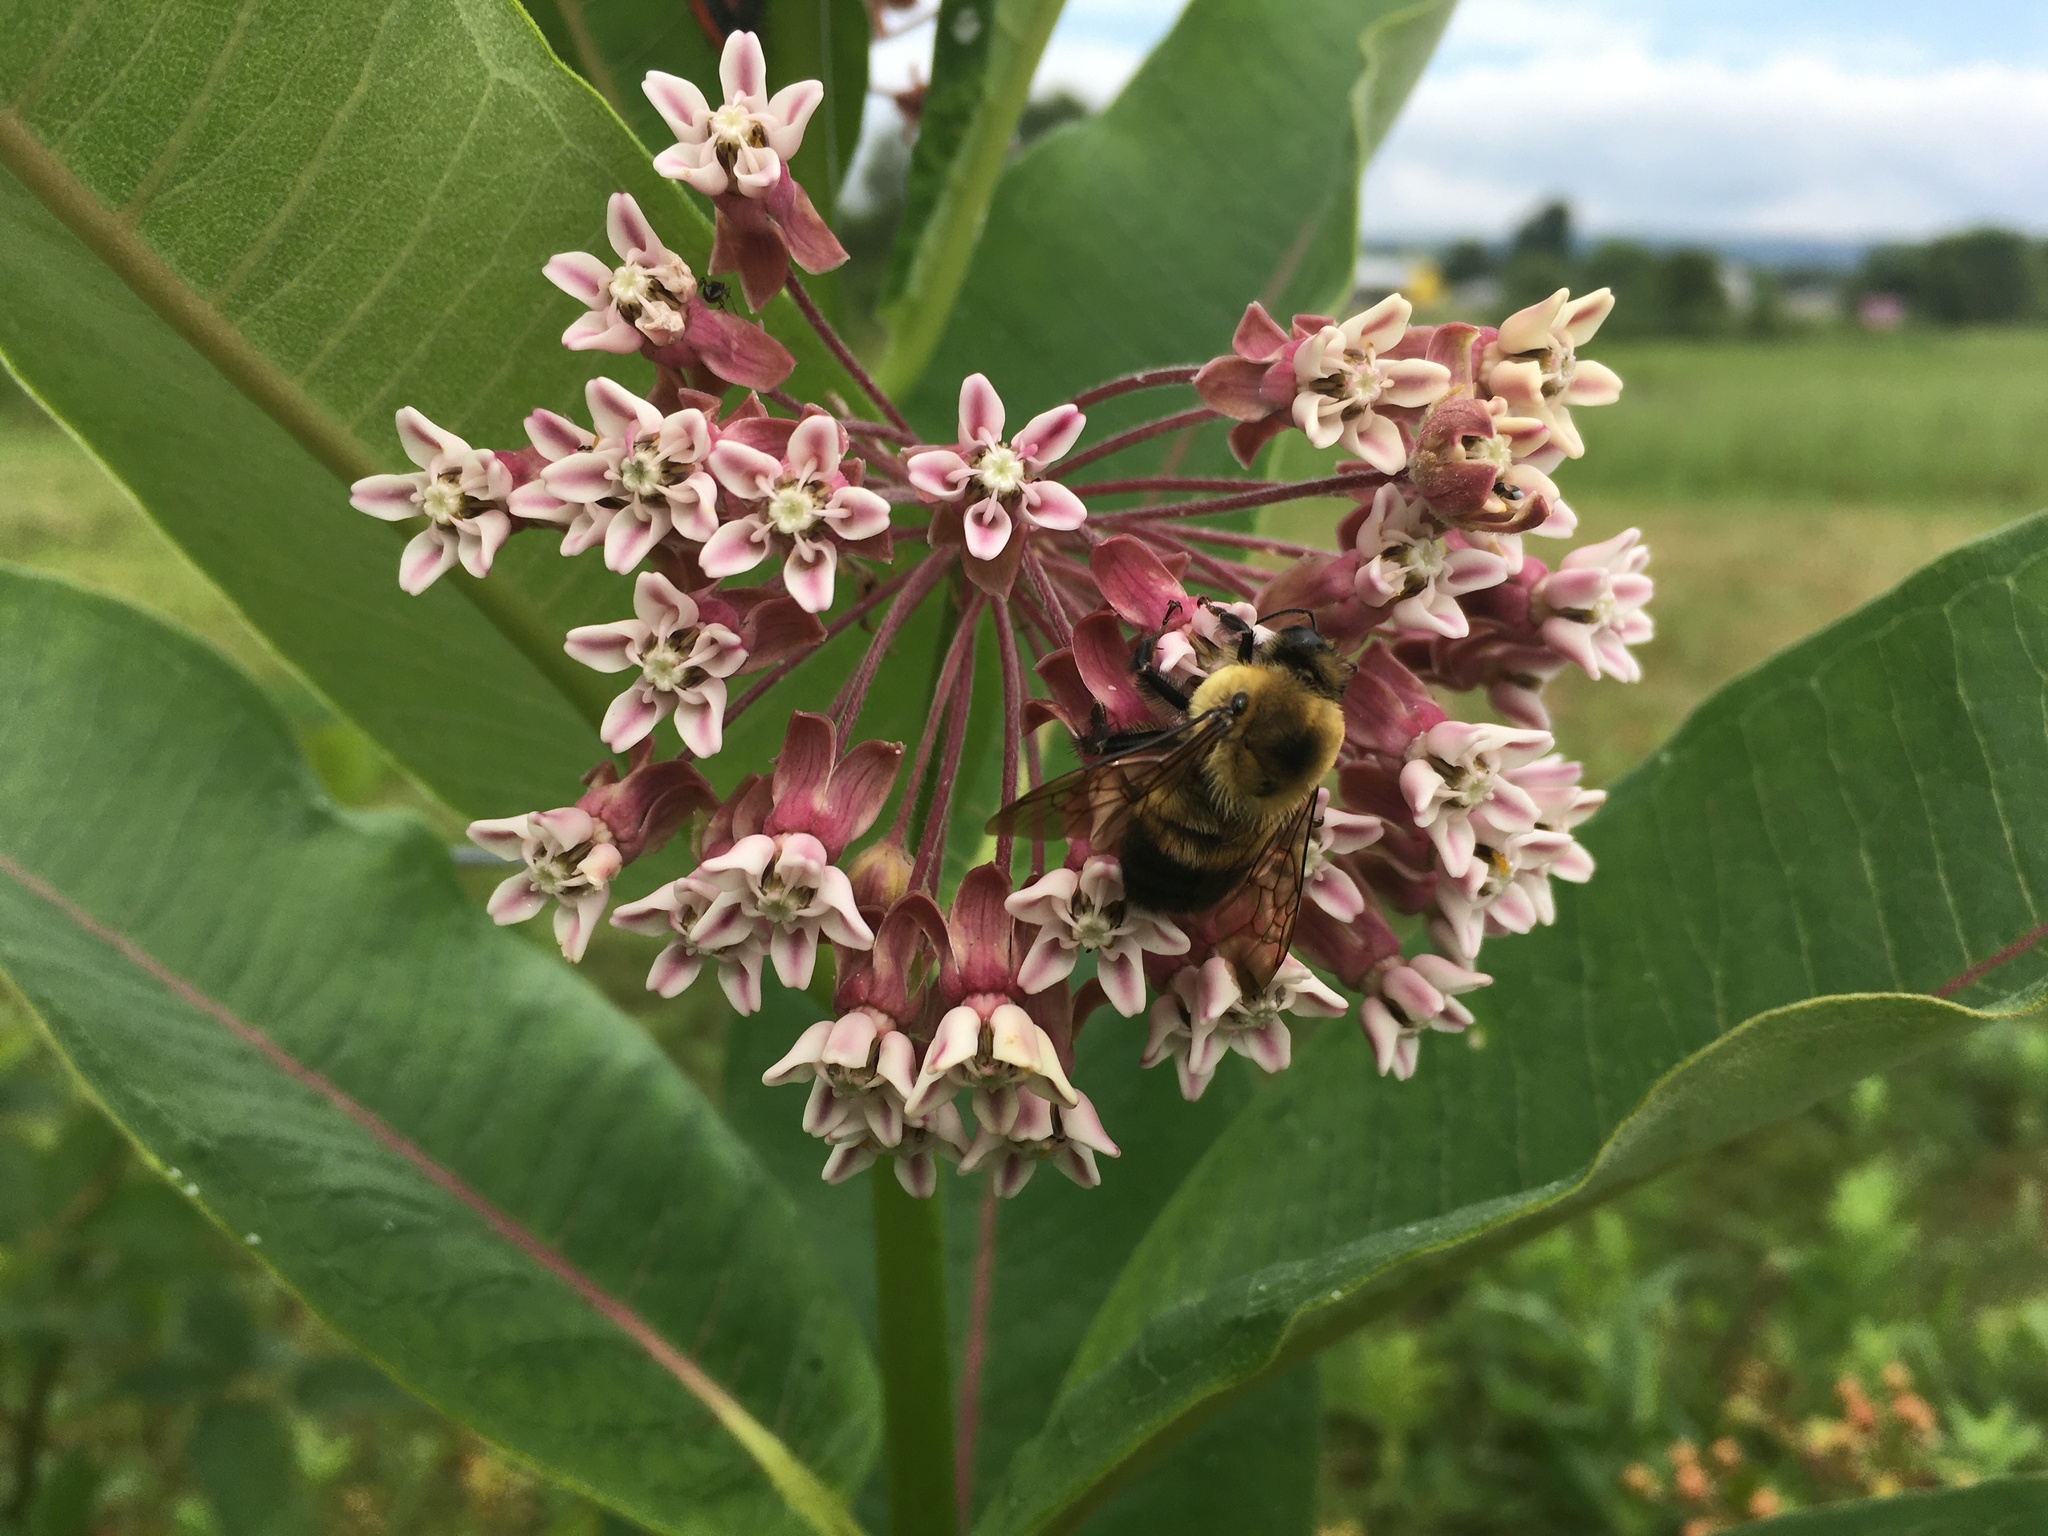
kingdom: Plantae
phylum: Tracheophyta
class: Magnoliopsida
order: Gentianales
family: Apocynaceae
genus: Asclepias
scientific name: Asclepias syriaca
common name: Common milkweed
